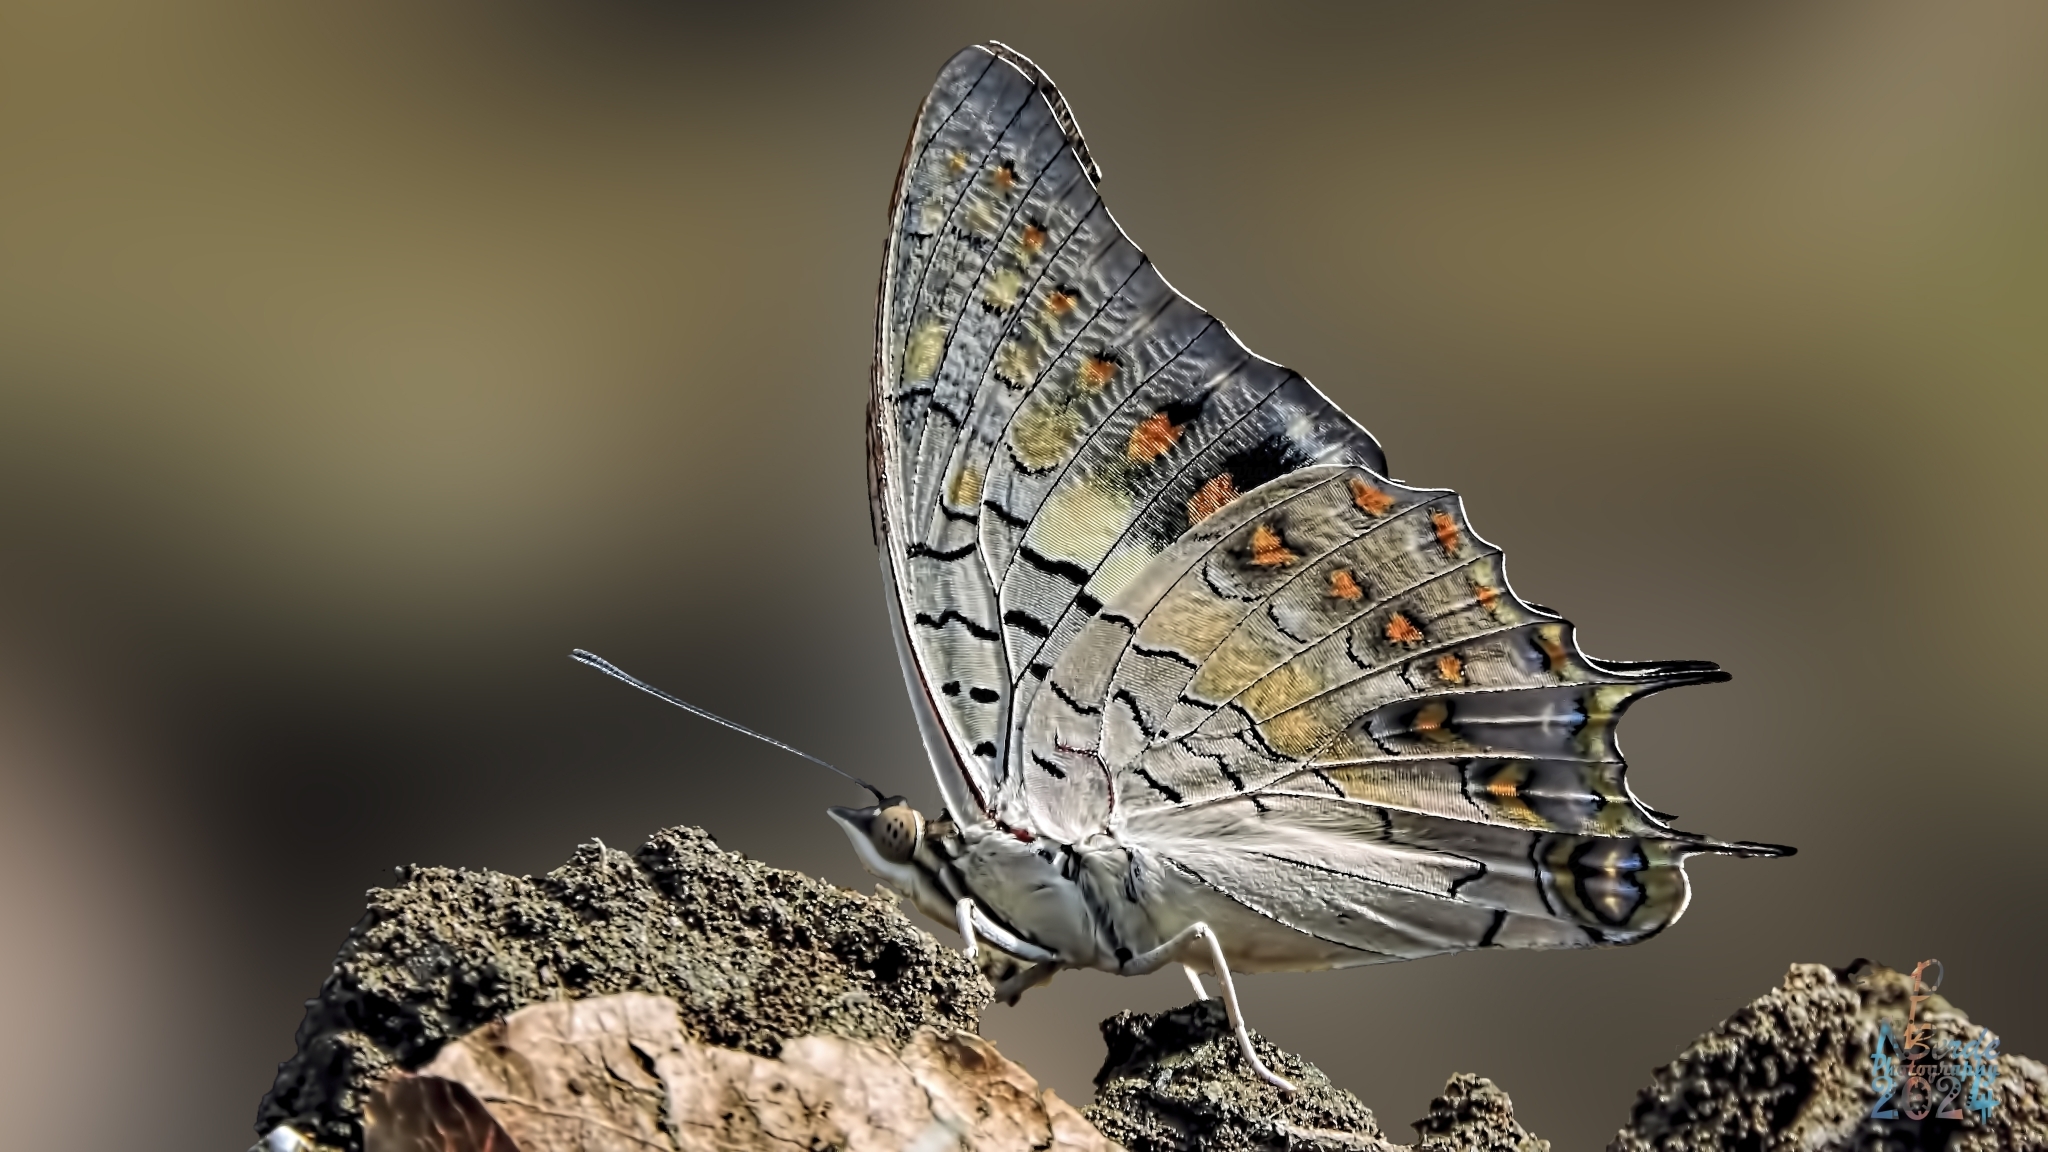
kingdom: Animalia
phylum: Arthropoda
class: Insecta
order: Lepidoptera
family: Nymphalidae
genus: Charaxes
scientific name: Charaxes solon
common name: Black rajah
